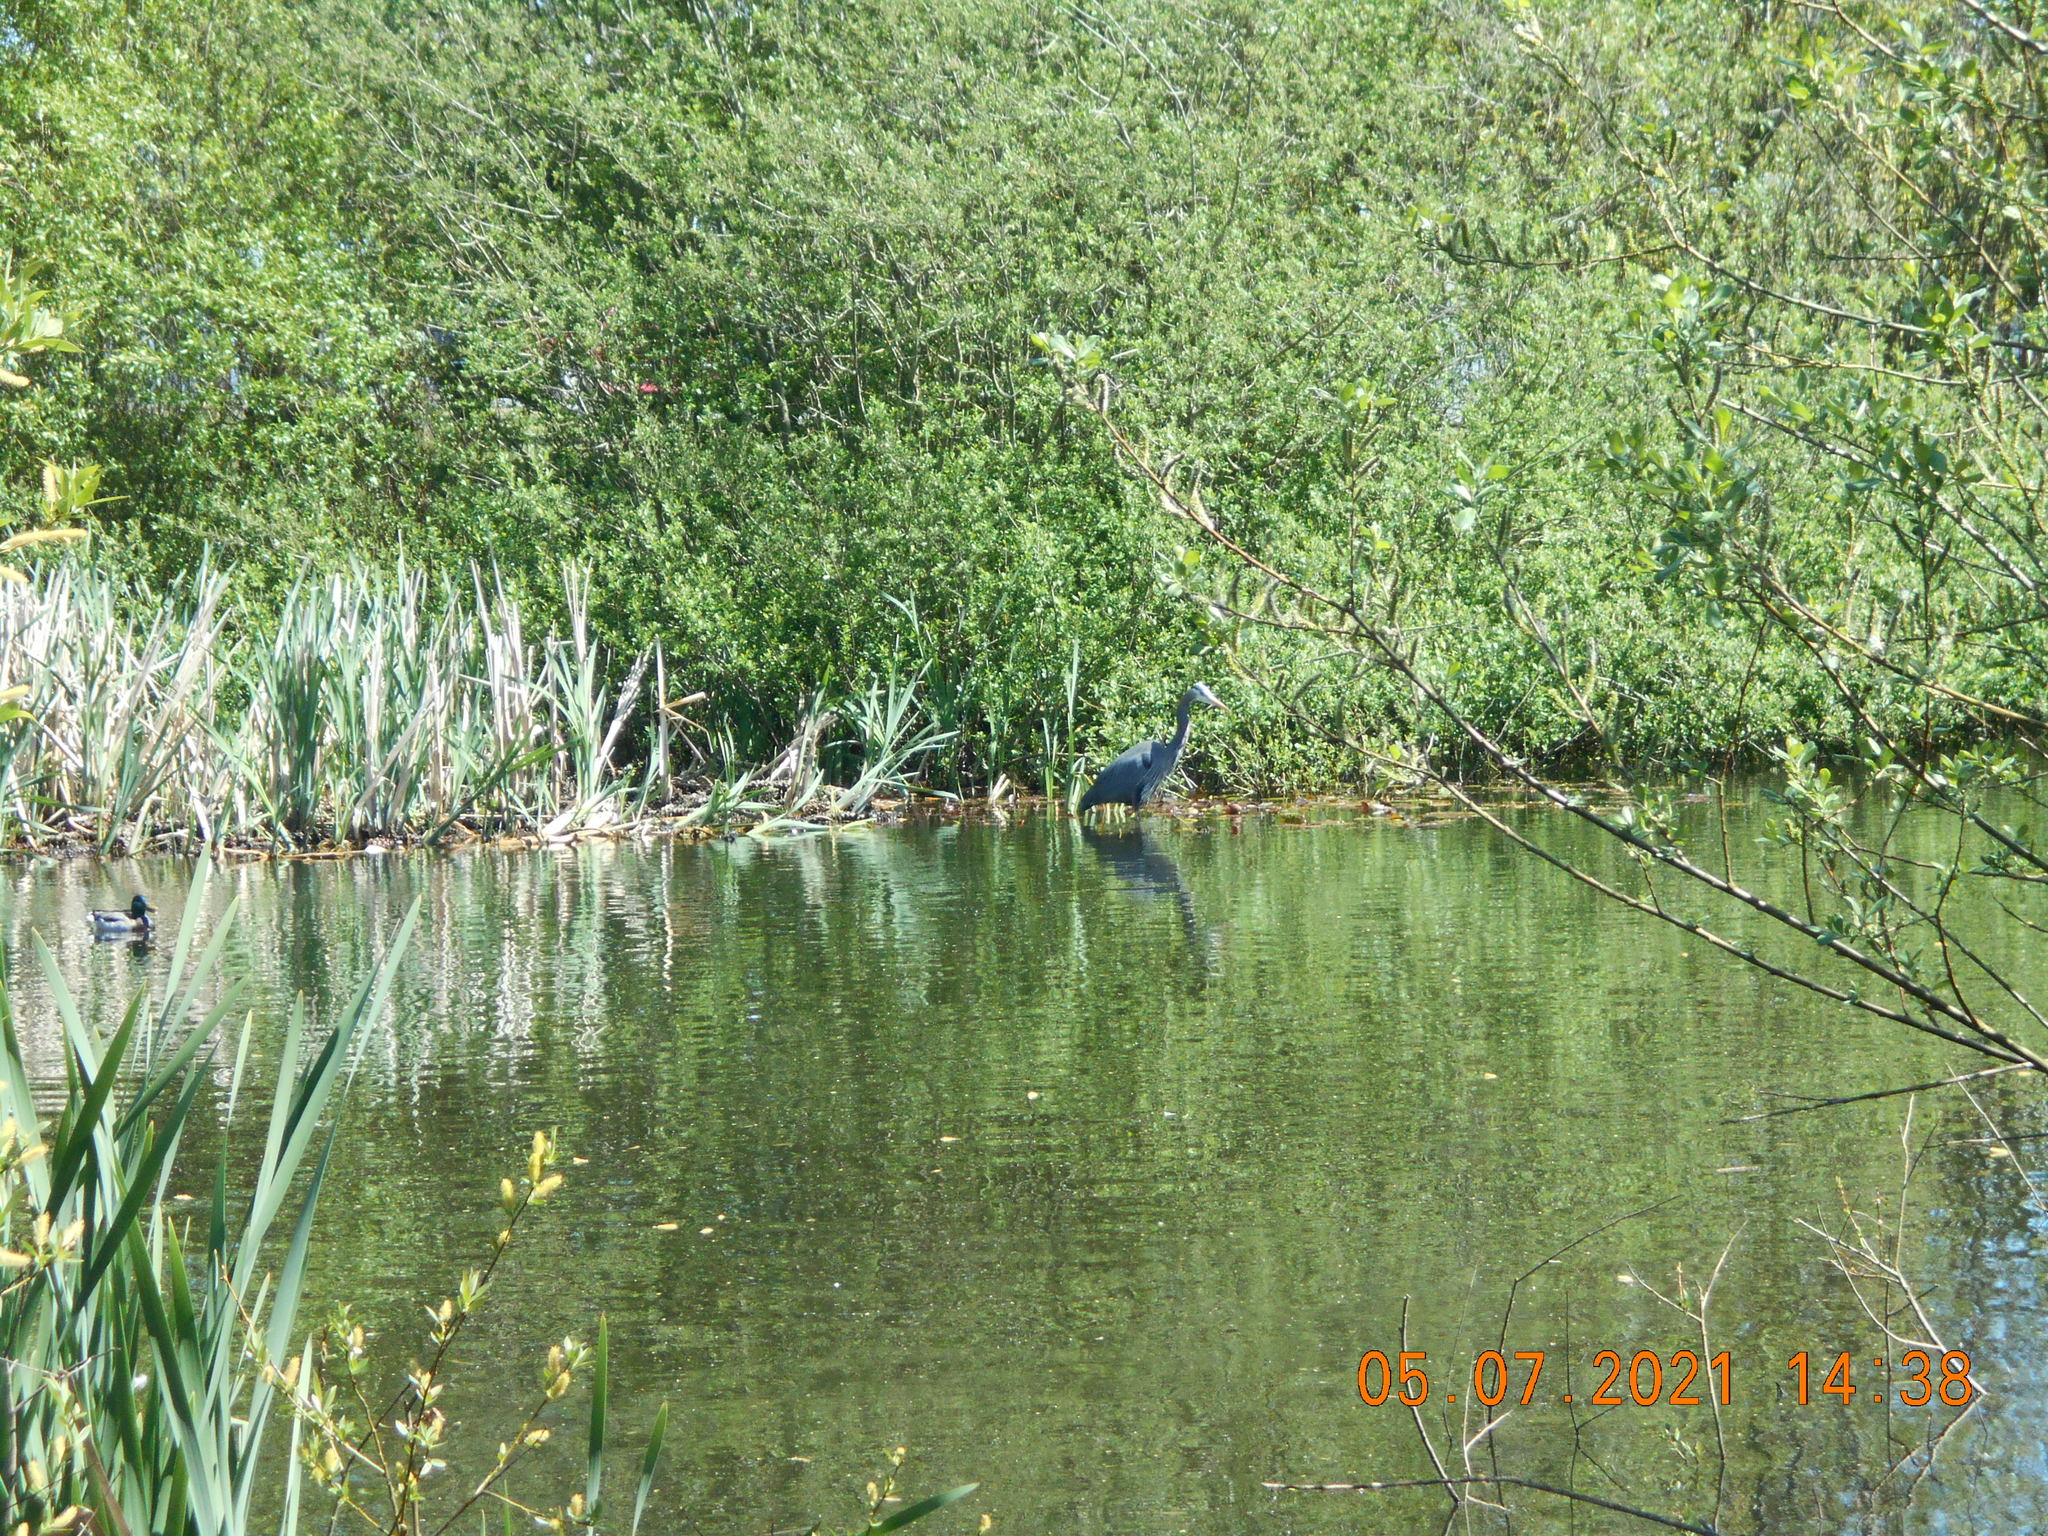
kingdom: Animalia
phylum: Chordata
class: Aves
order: Pelecaniformes
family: Ardeidae
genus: Ardea
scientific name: Ardea herodias
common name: Great blue heron
